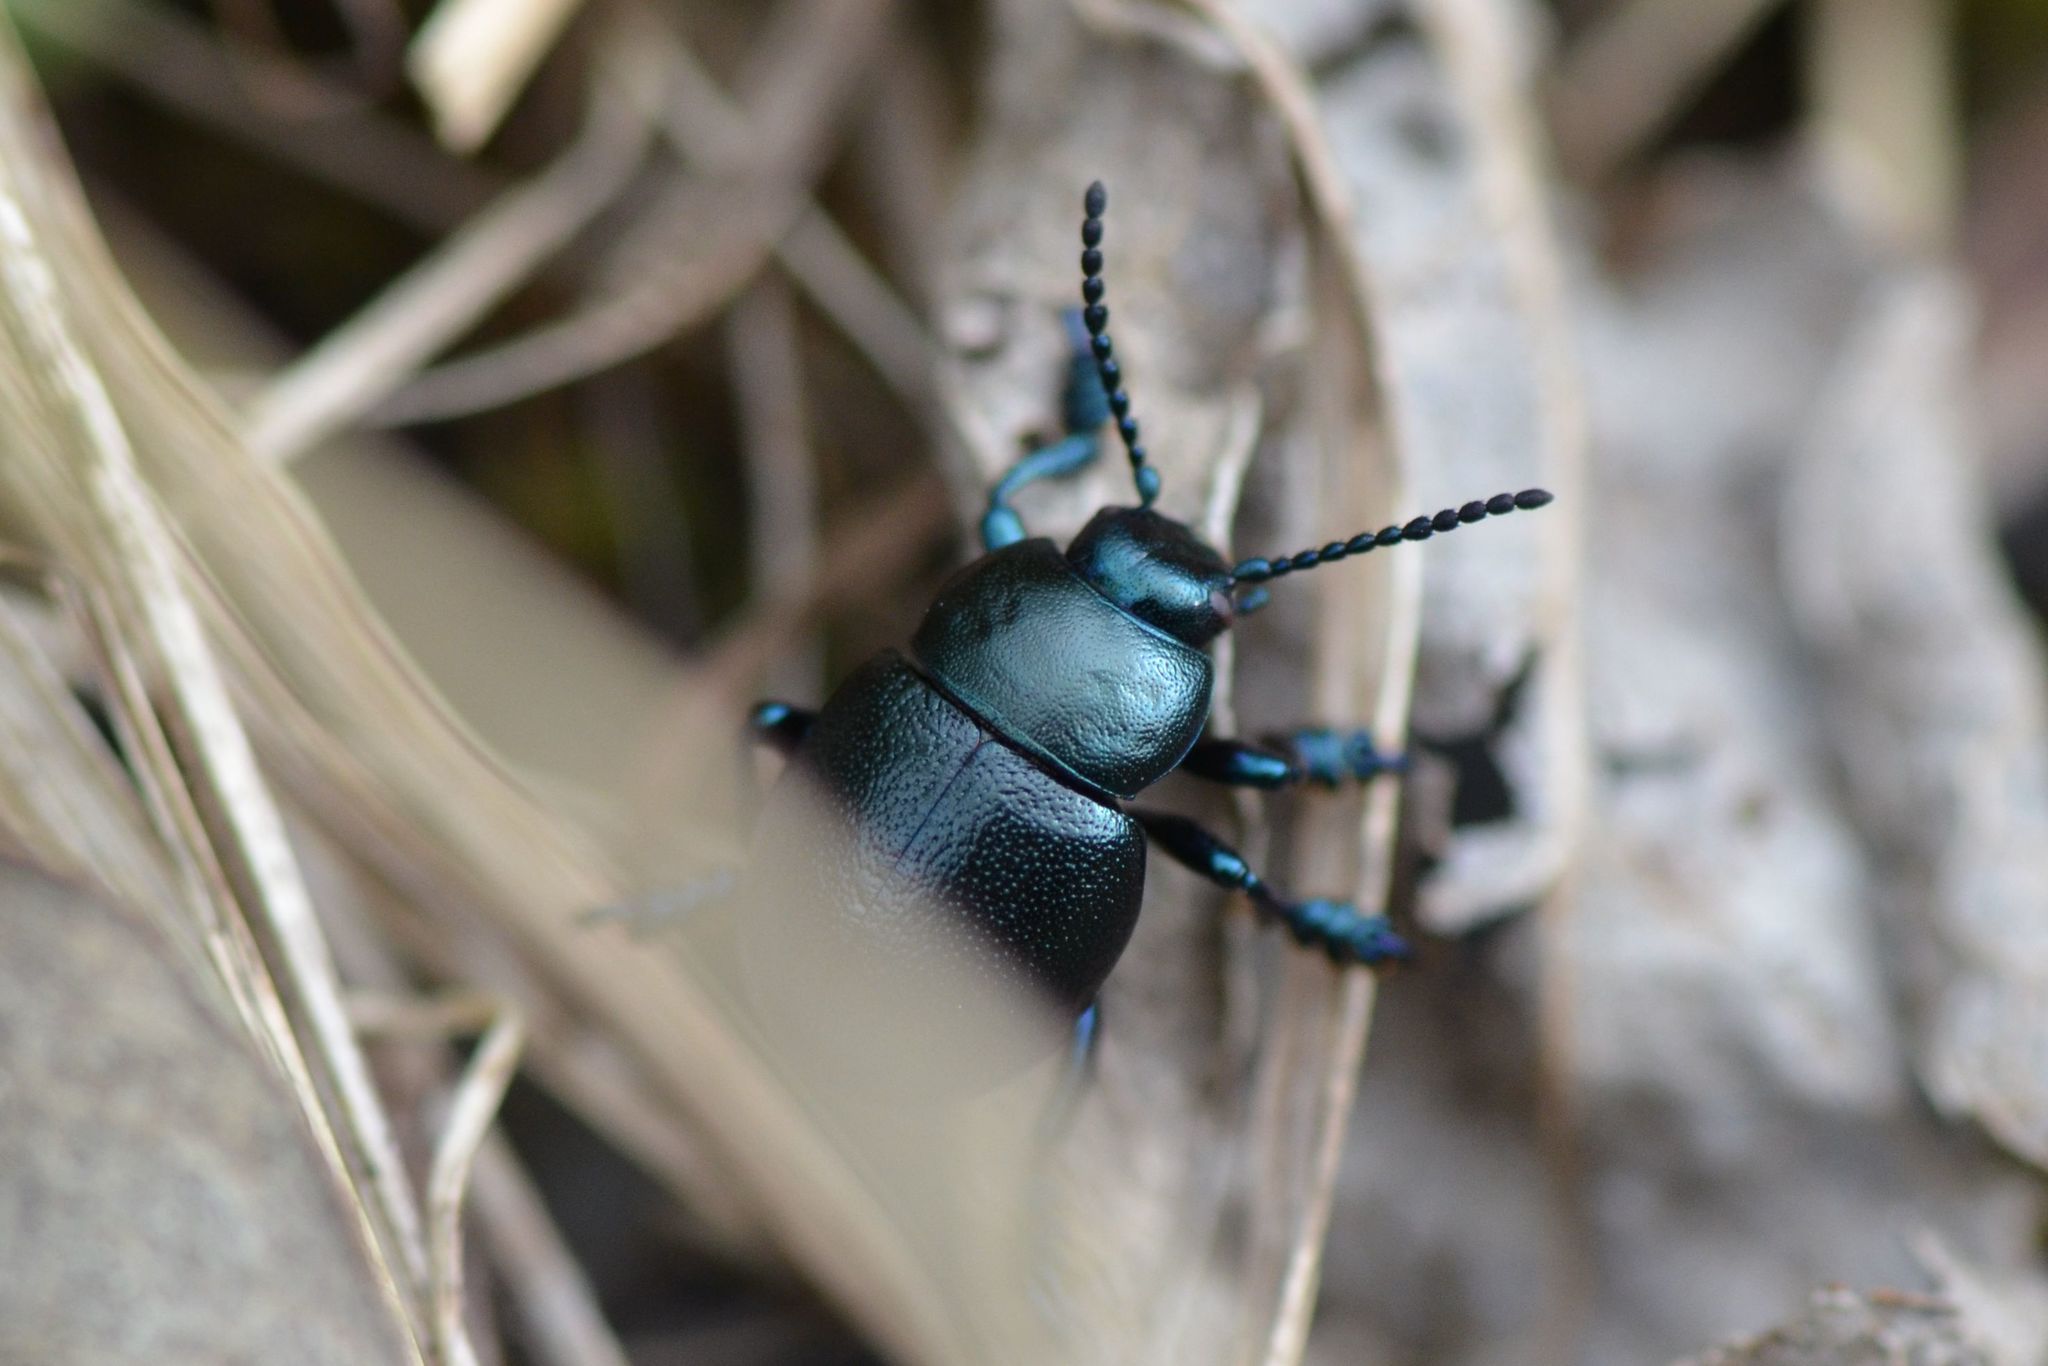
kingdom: Animalia
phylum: Arthropoda
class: Insecta
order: Coleoptera
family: Chrysomelidae
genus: Timarcha
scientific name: Timarcha goettingensis
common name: Small bloody-nosed beetle
